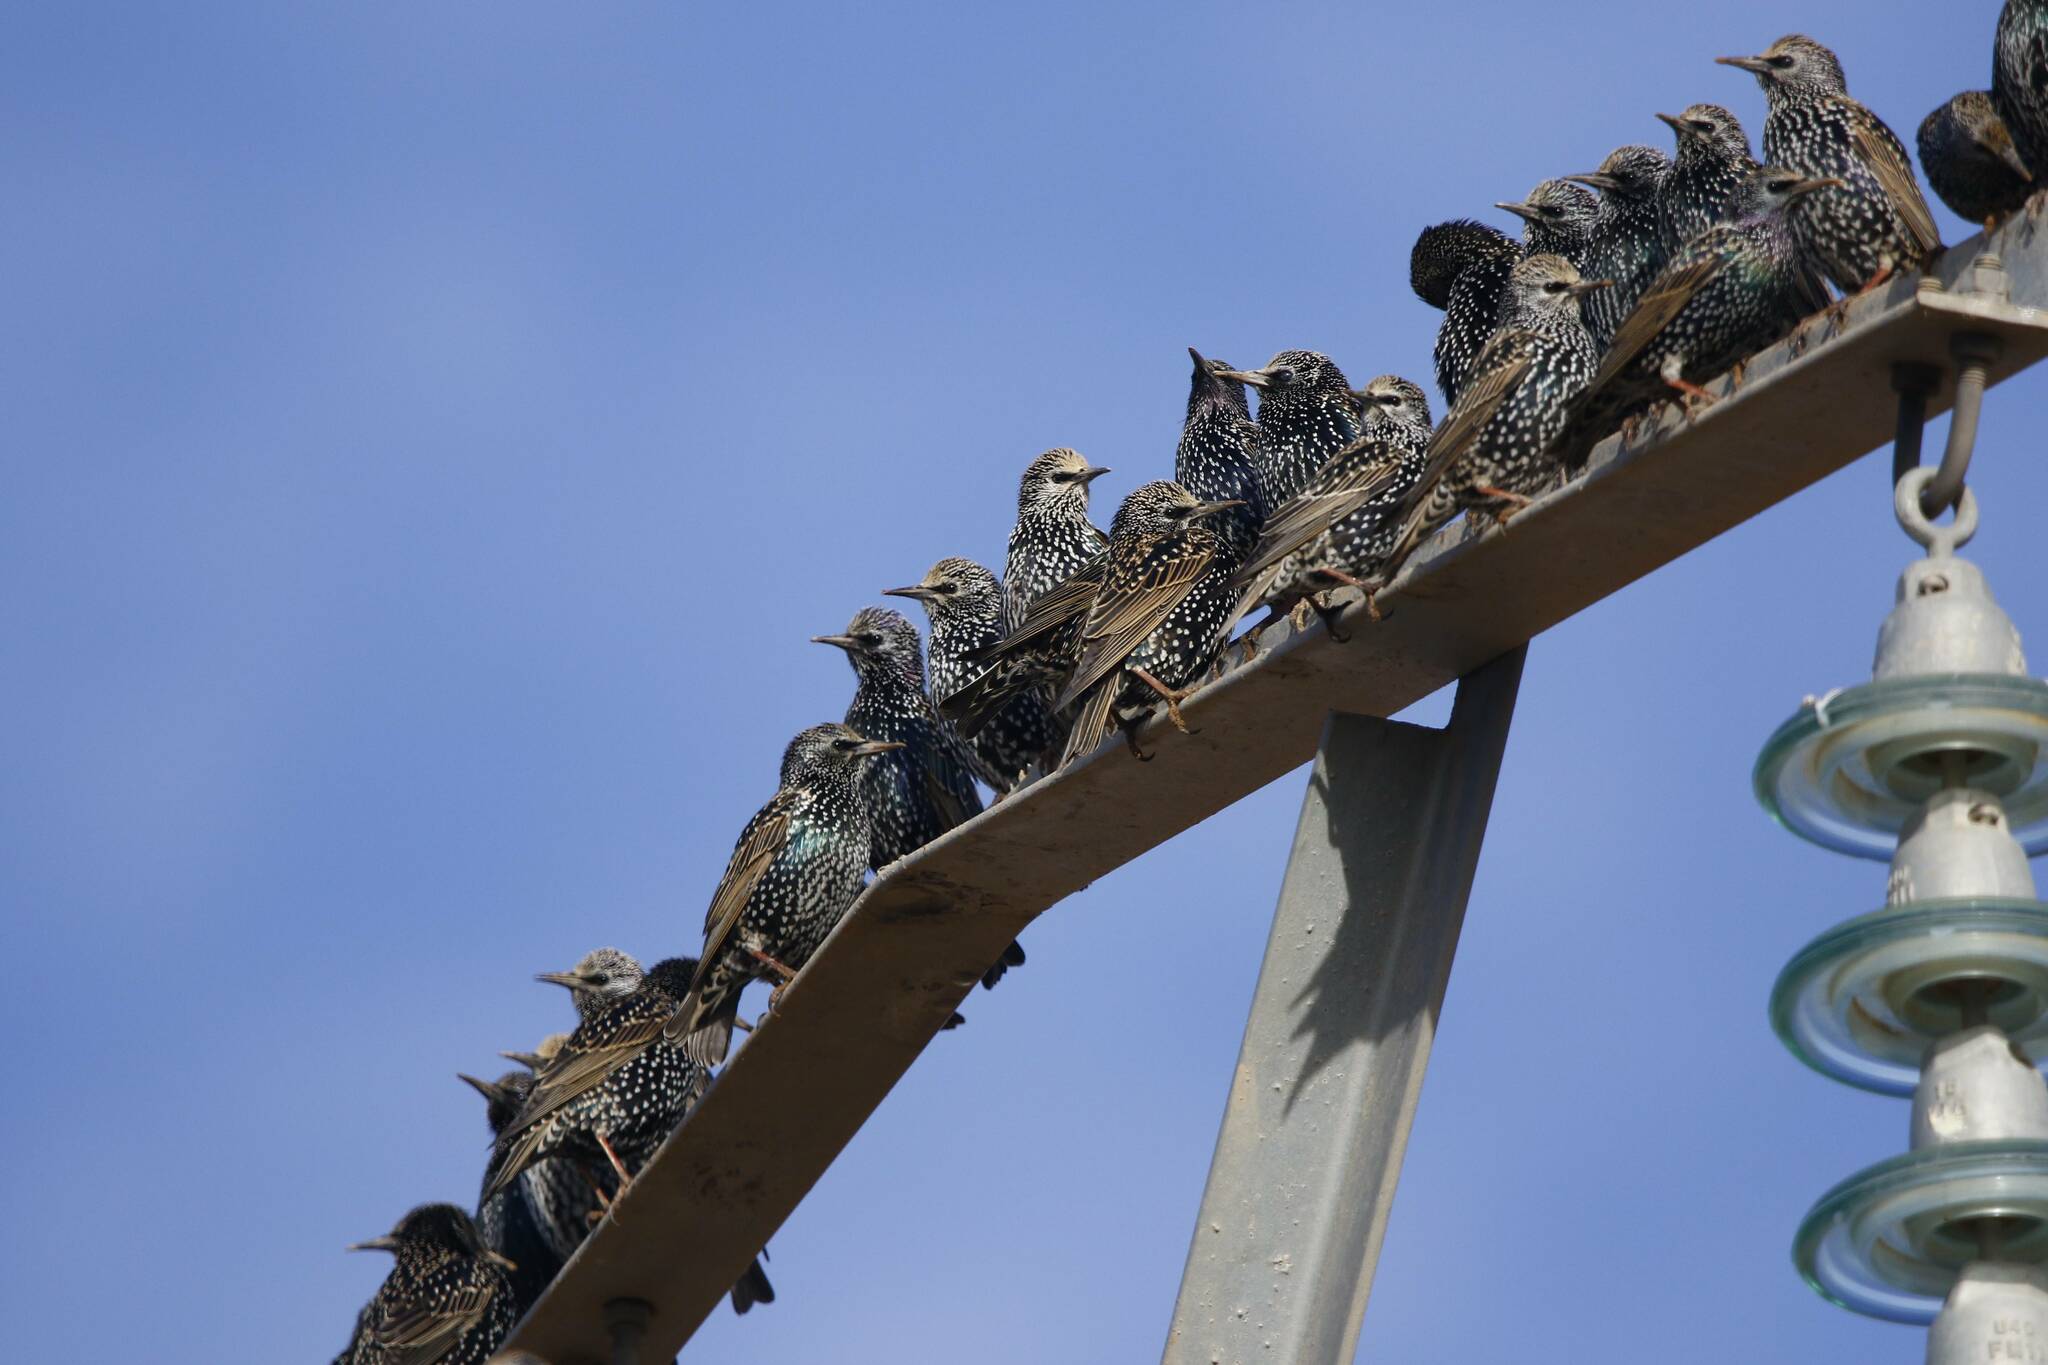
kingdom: Animalia
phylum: Chordata
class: Aves
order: Passeriformes
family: Sturnidae
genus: Sturnus
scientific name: Sturnus vulgaris
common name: Common starling
